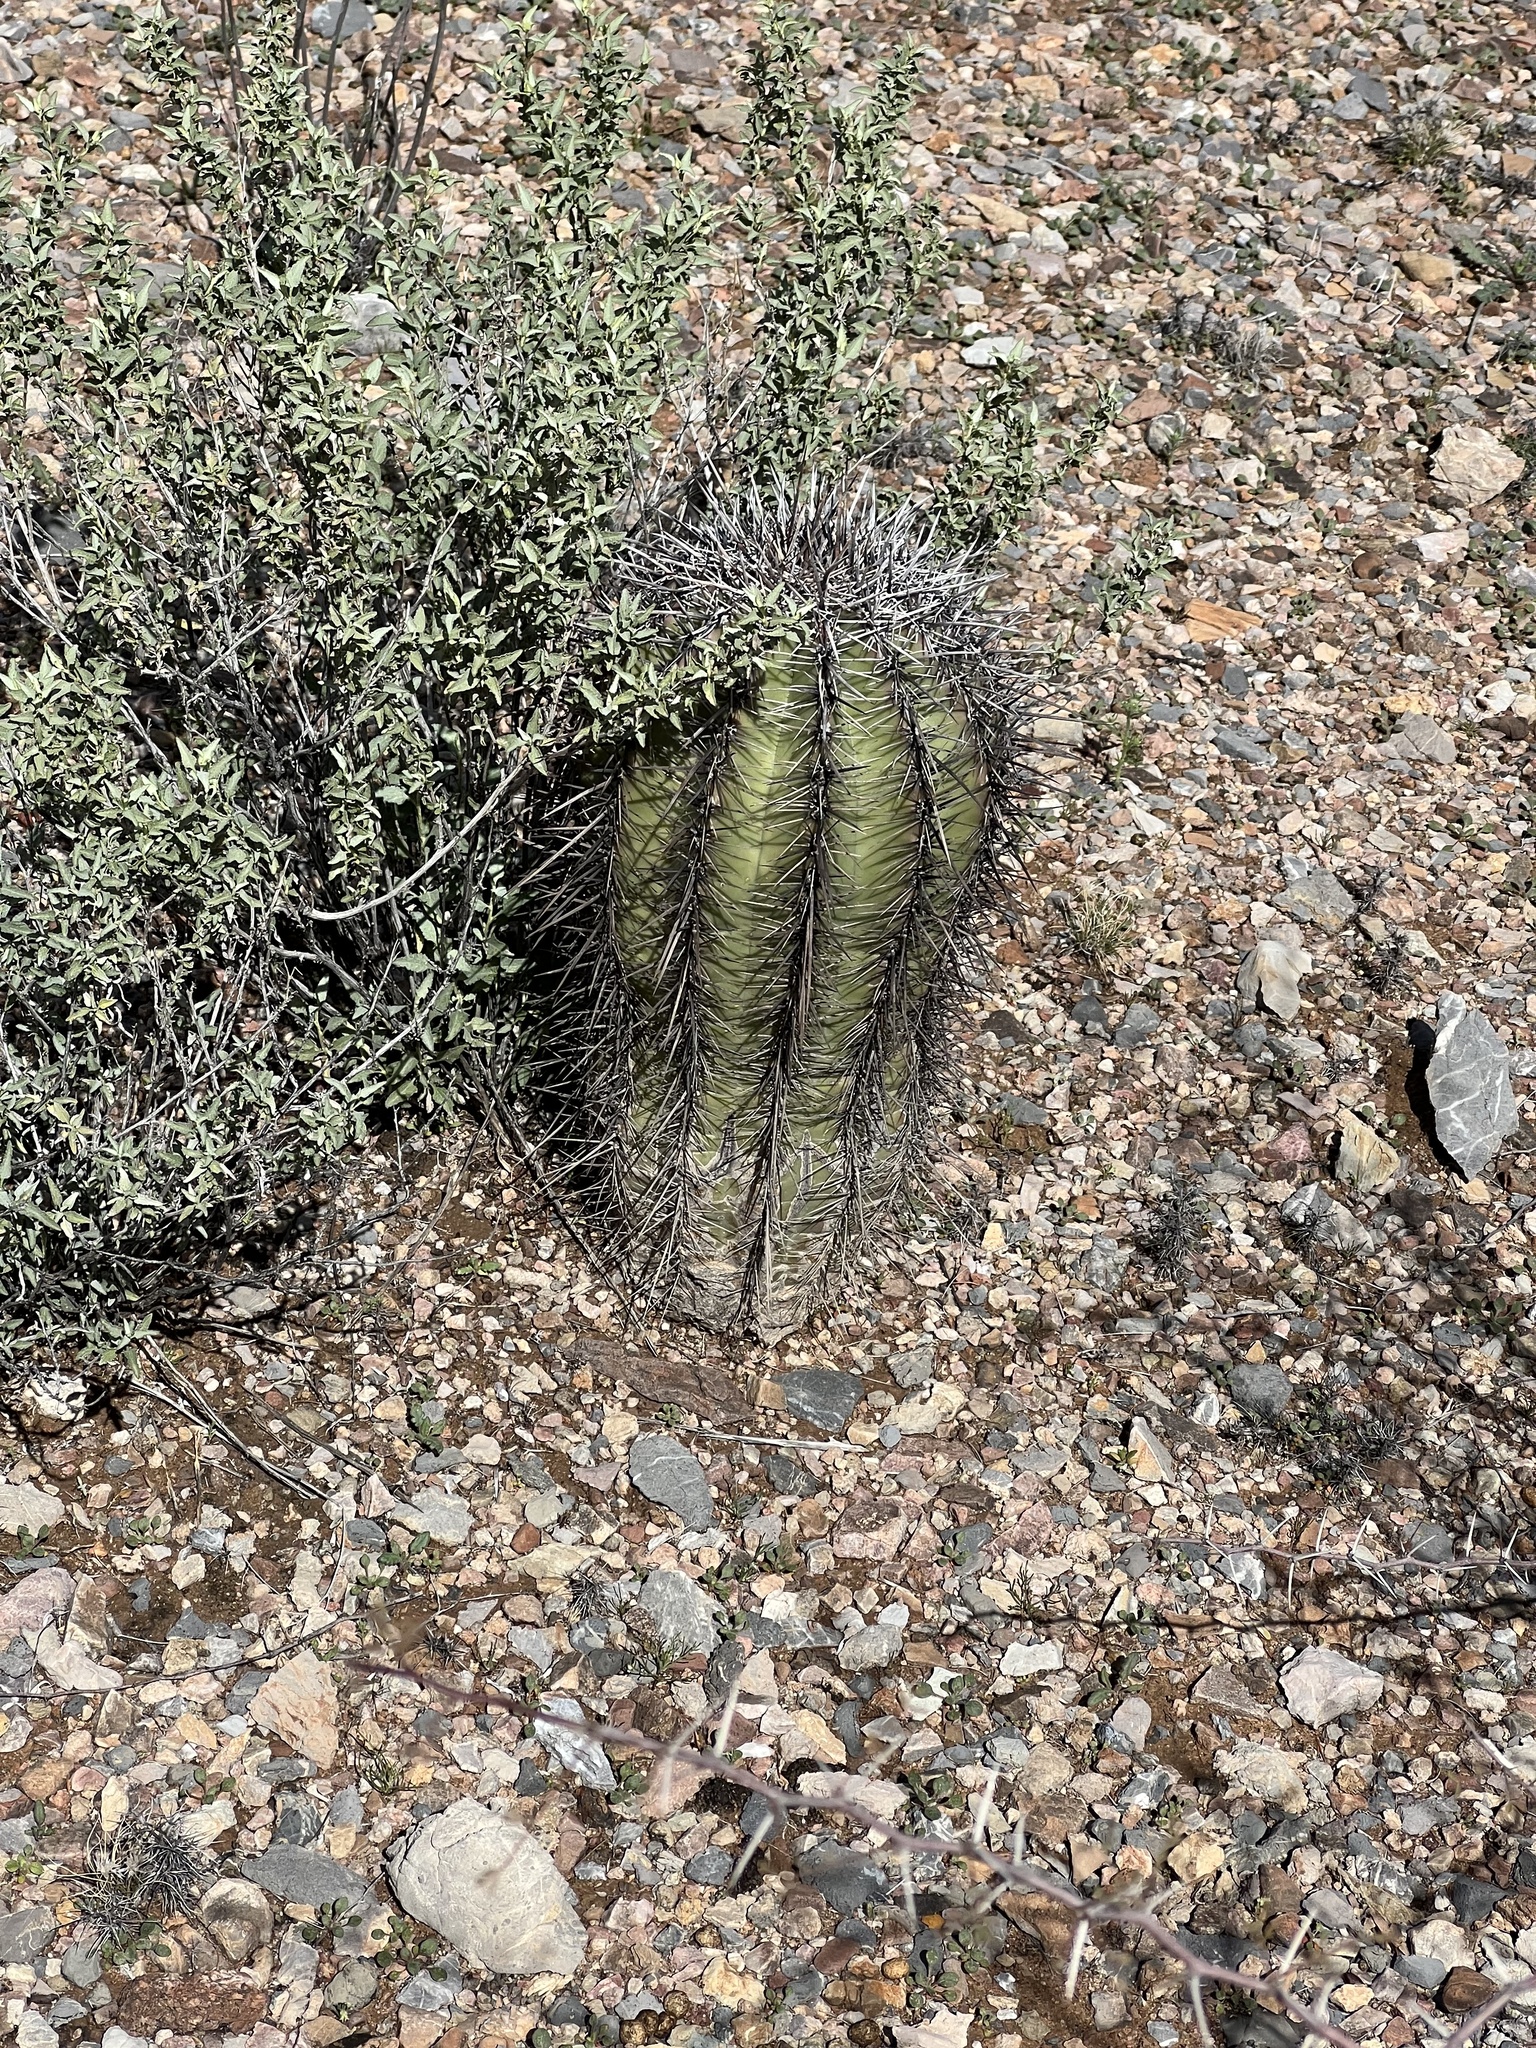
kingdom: Plantae
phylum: Tracheophyta
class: Magnoliopsida
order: Caryophyllales
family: Cactaceae
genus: Carnegiea
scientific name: Carnegiea gigantea
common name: Saguaro
